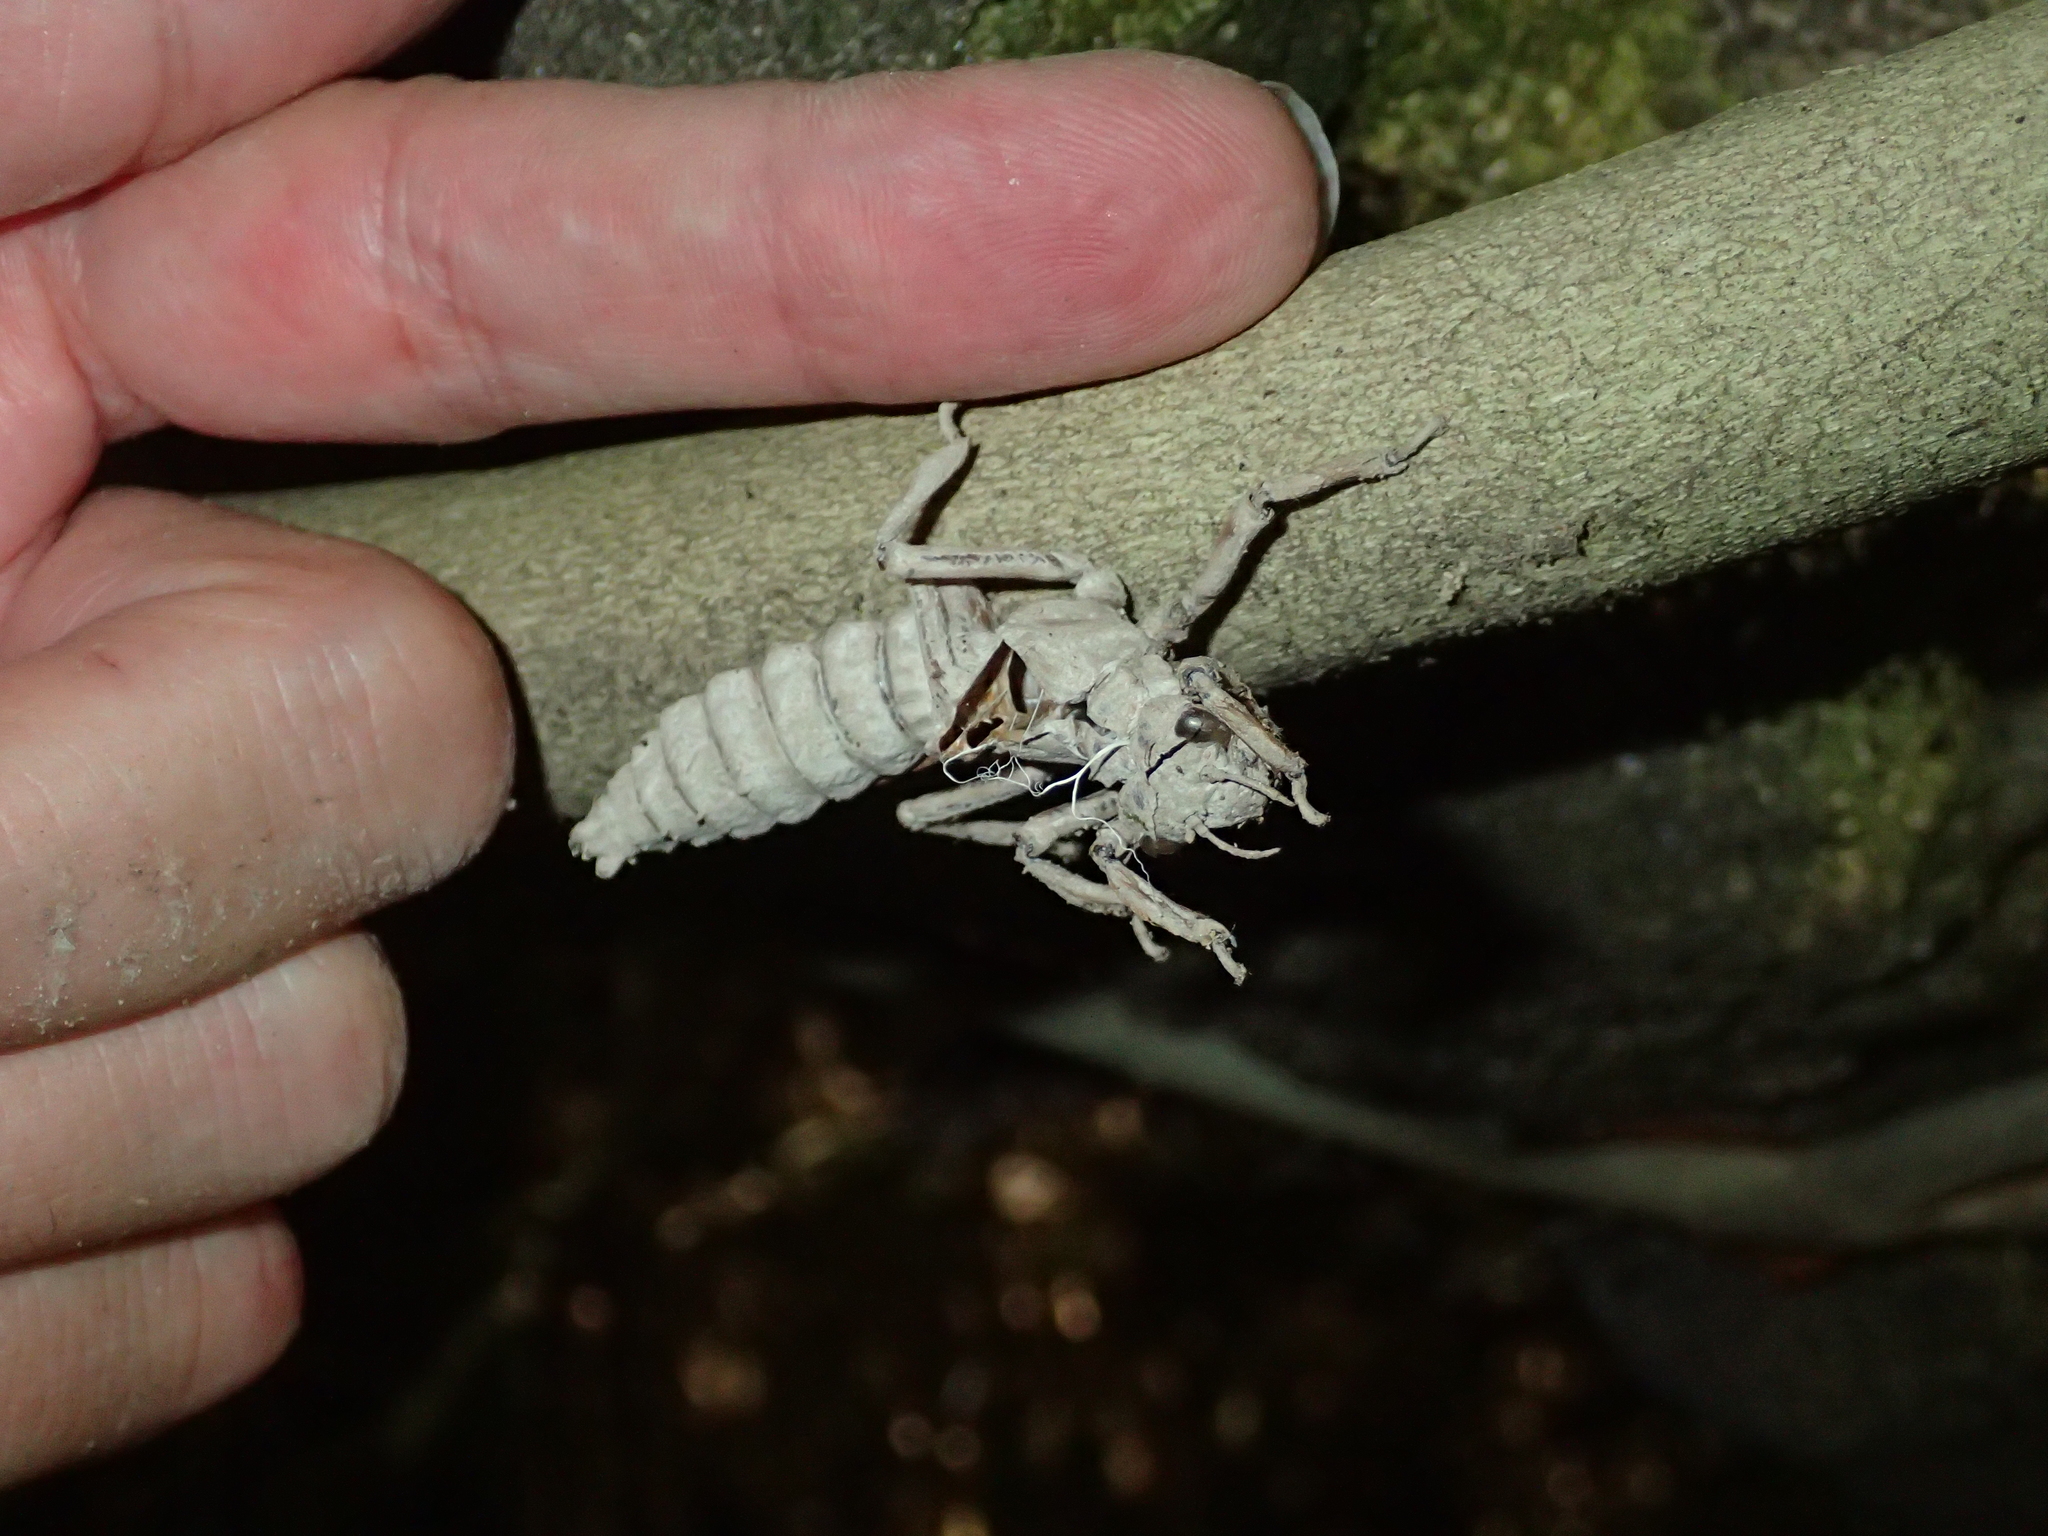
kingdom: Animalia
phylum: Arthropoda
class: Insecta
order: Odonata
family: Petaluridae
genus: Uropetala
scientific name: Uropetala carovei
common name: Bush giant dragonfly
